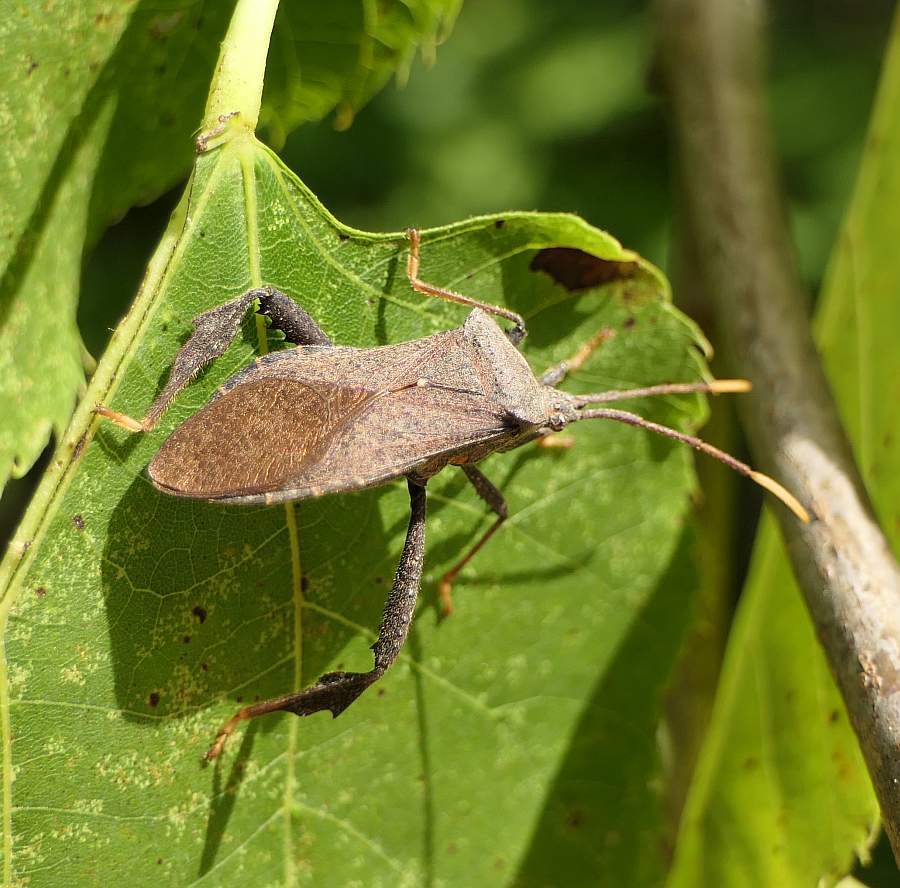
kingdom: Animalia
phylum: Arthropoda
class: Insecta
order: Hemiptera
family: Coreidae
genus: Acanthocephala
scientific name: Acanthocephala terminalis
